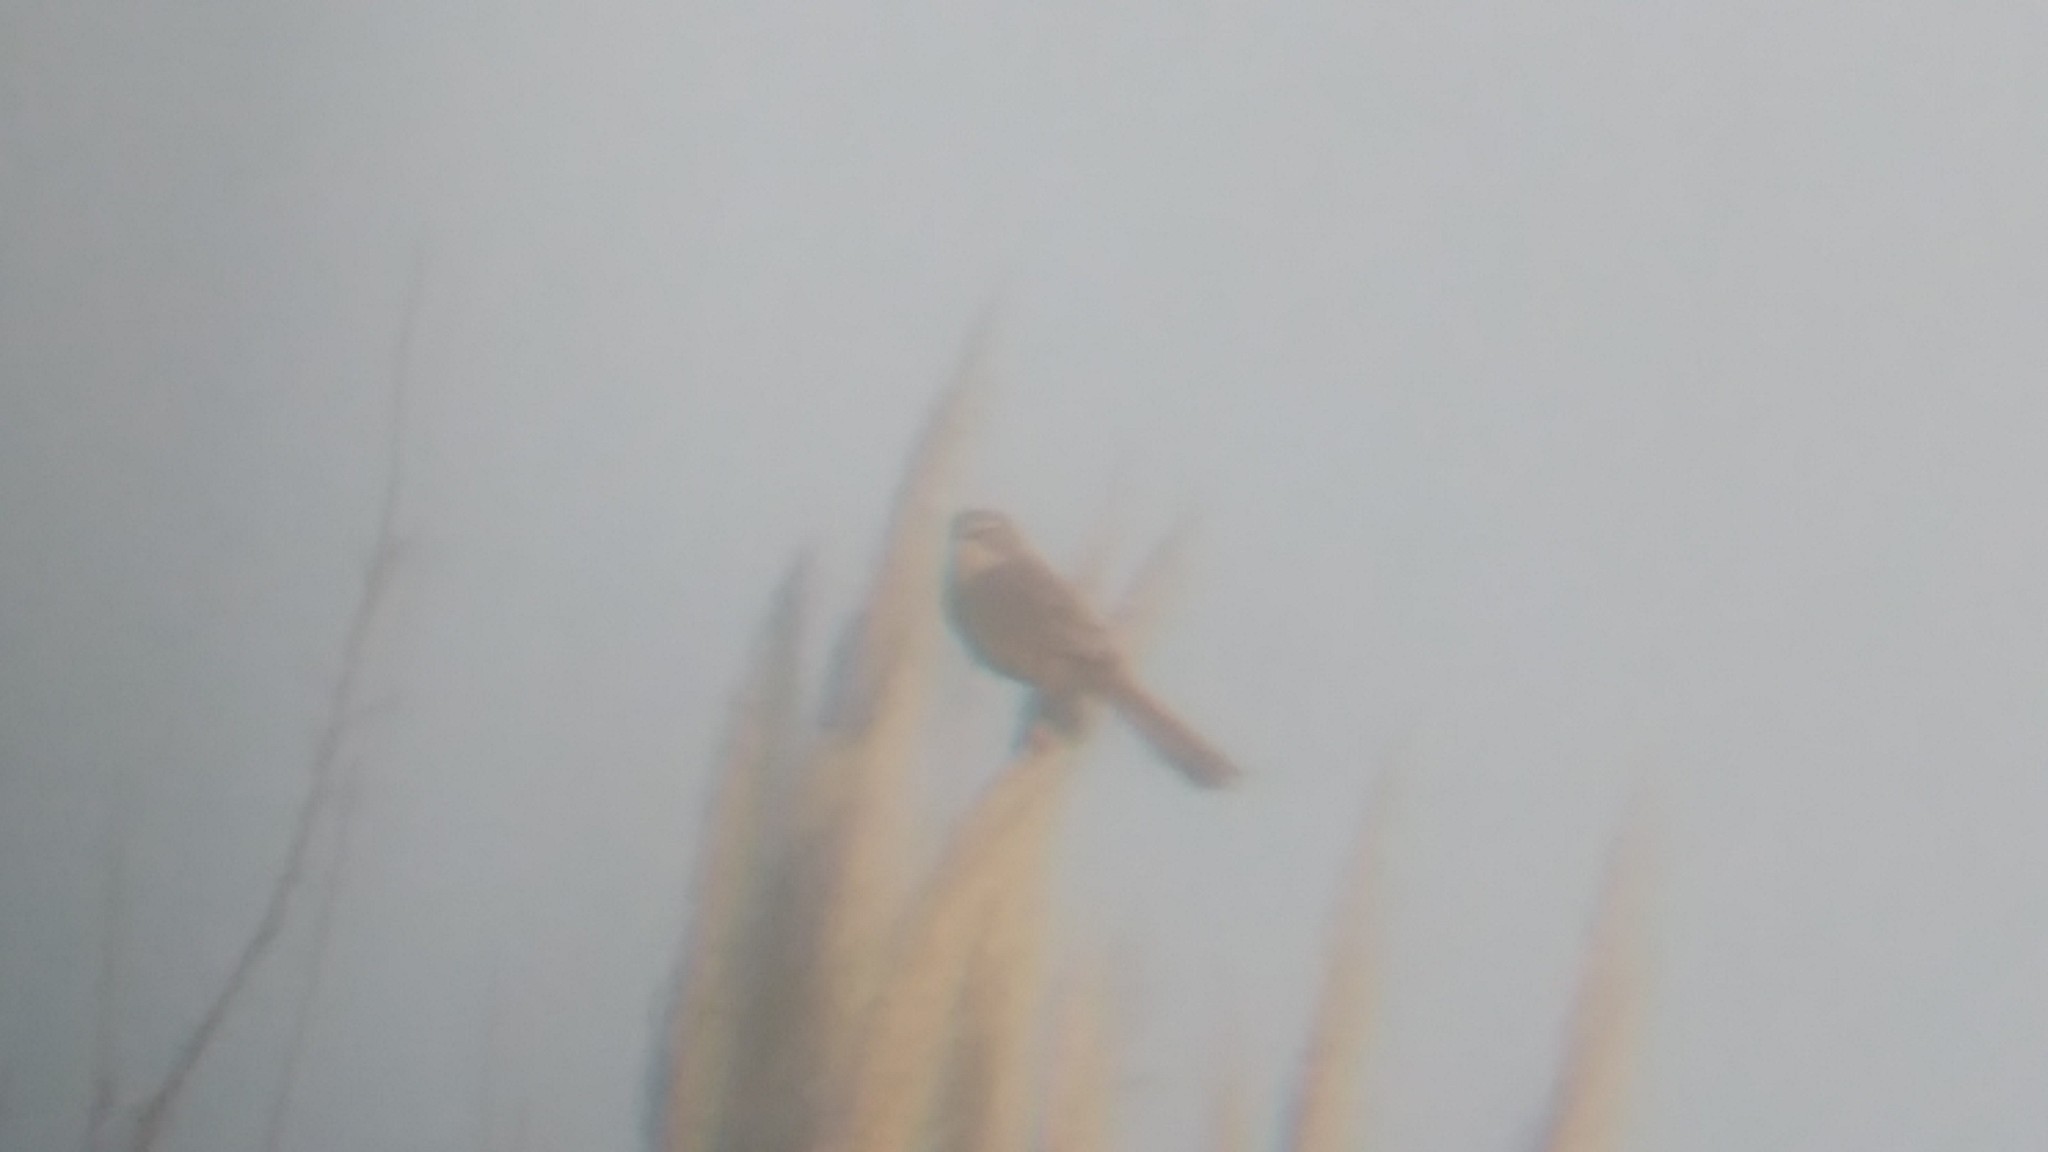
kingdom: Animalia
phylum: Chordata
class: Aves
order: Passeriformes
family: Thraupidae
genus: Donacospiza
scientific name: Donacospiza albifrons
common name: Long-tailed reed finch
